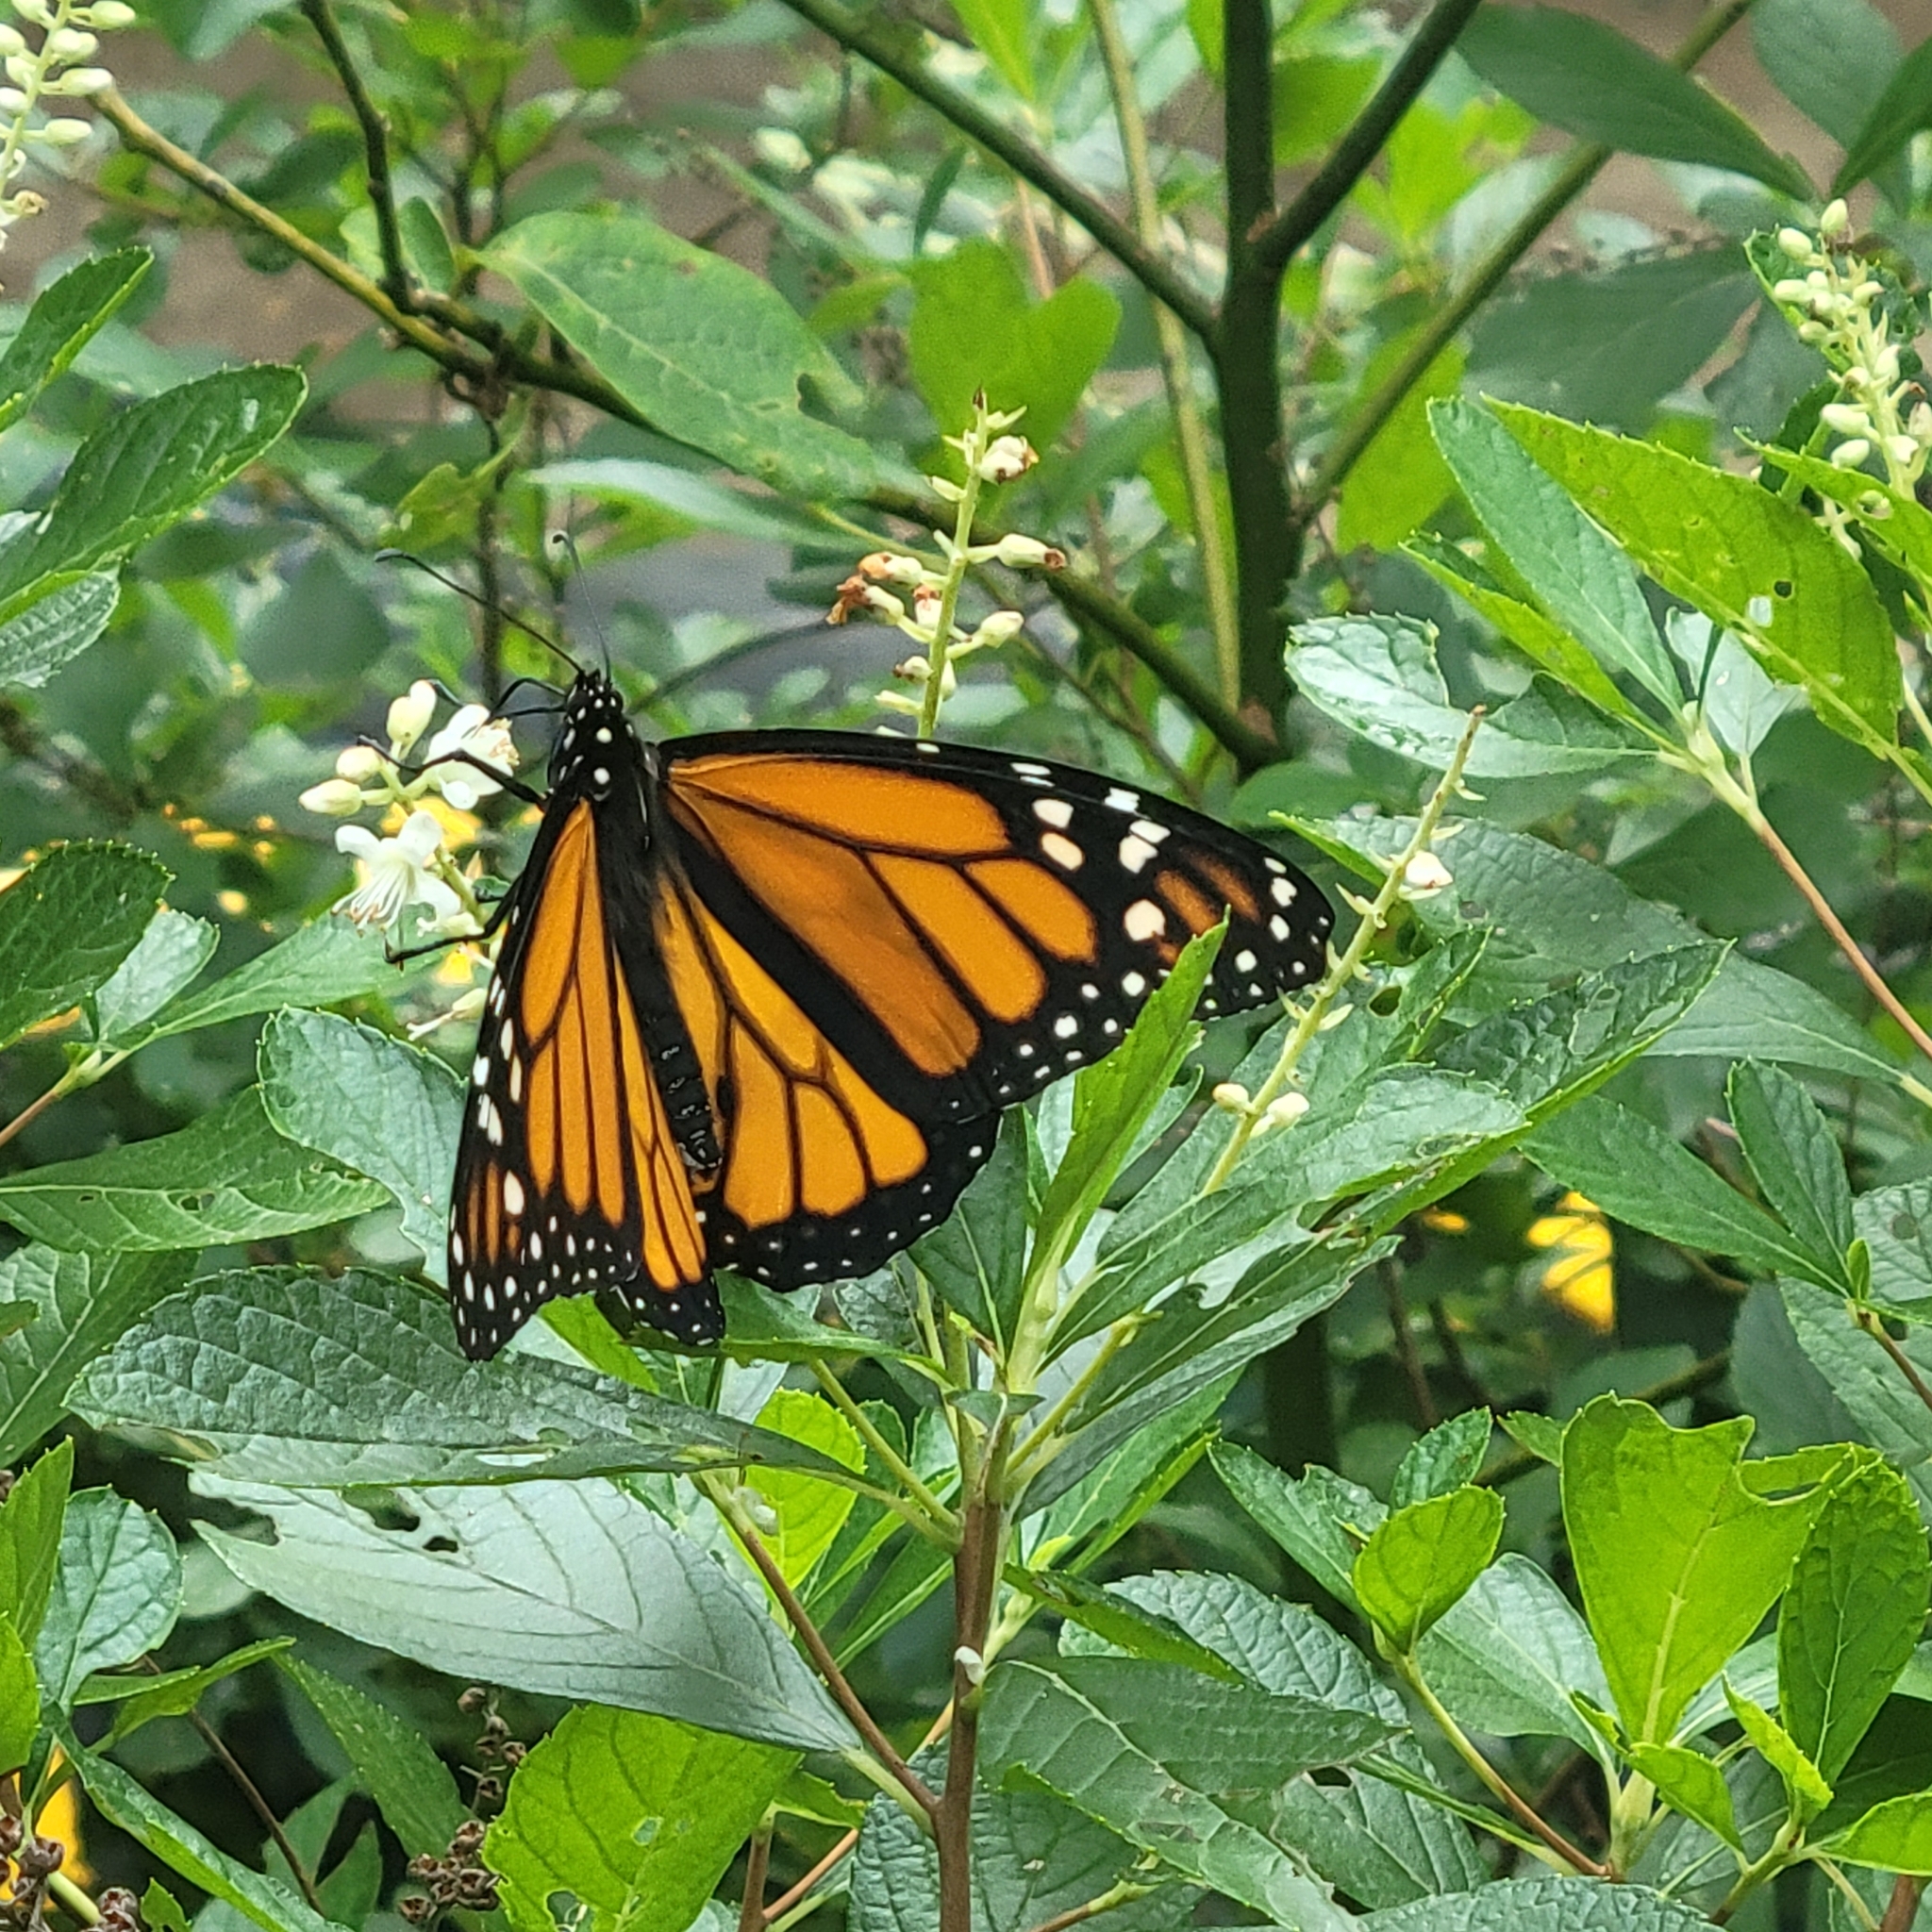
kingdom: Animalia
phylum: Arthropoda
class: Insecta
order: Lepidoptera
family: Nymphalidae
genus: Danaus
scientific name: Danaus plexippus
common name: Monarch
